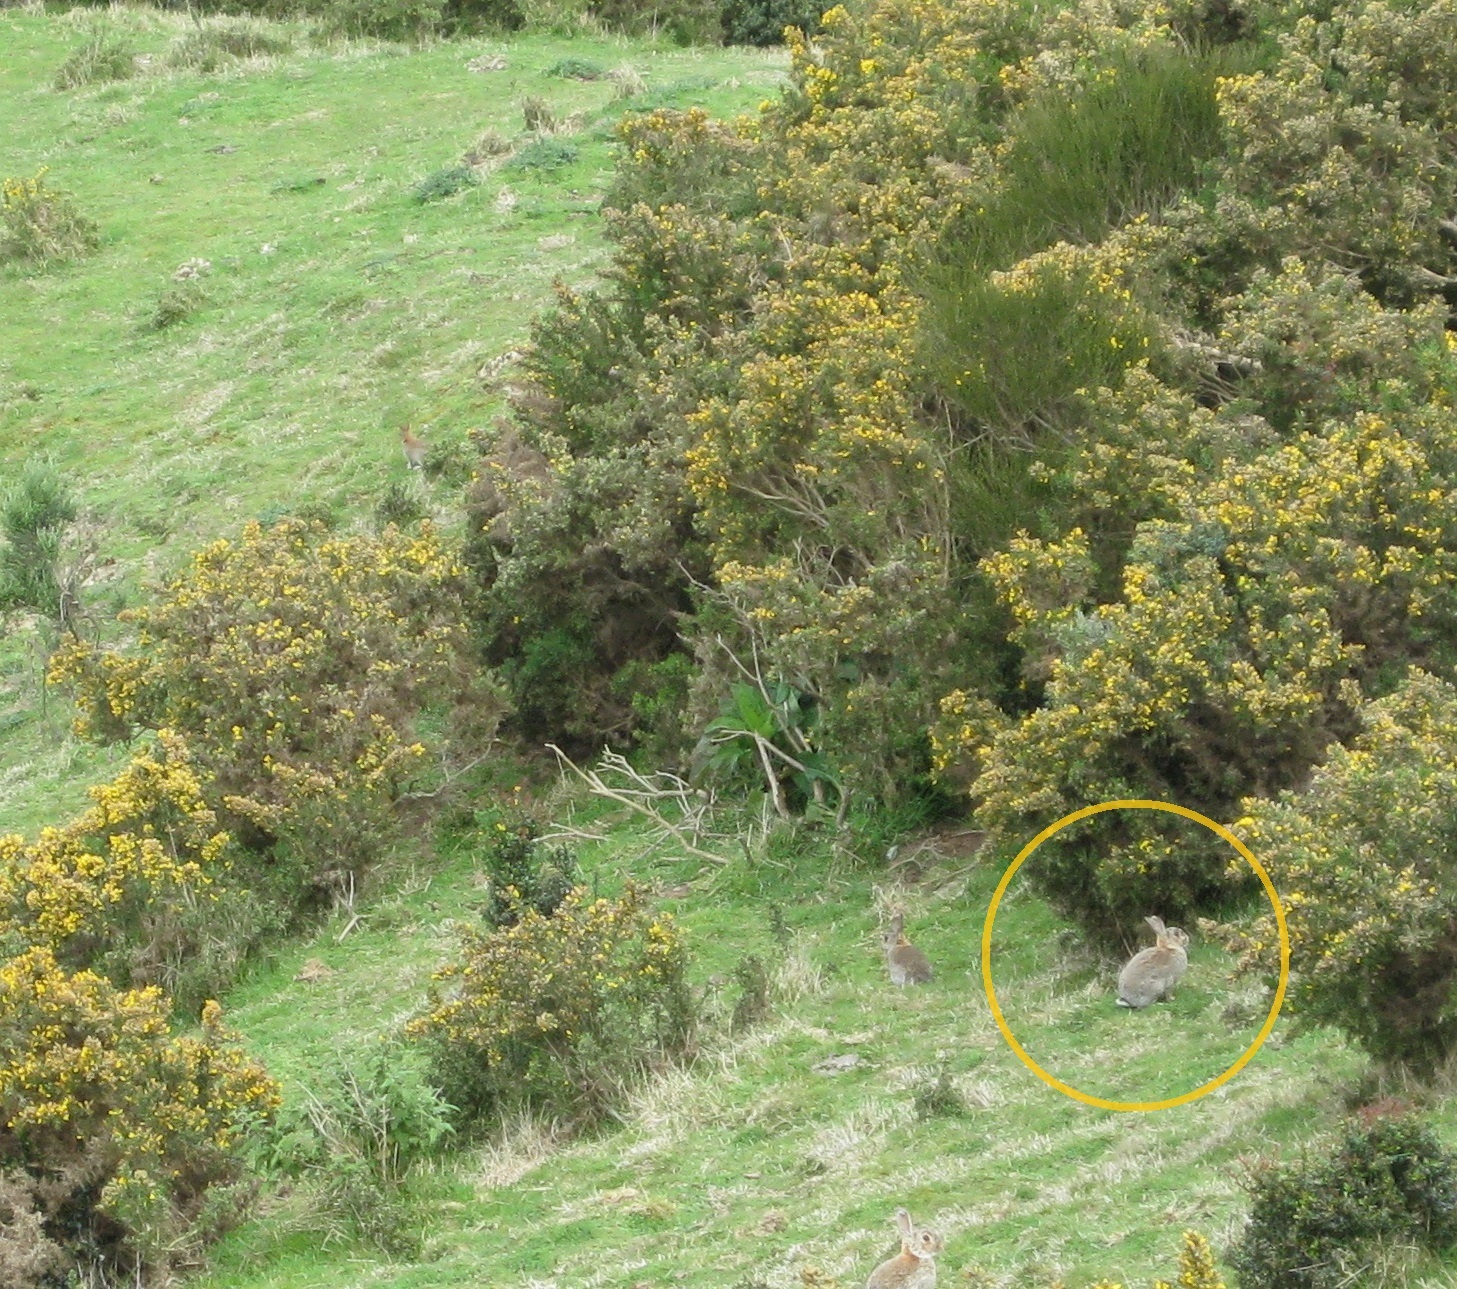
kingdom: Animalia
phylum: Chordata
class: Mammalia
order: Lagomorpha
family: Leporidae
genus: Oryctolagus
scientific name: Oryctolagus cuniculus
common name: European rabbit
